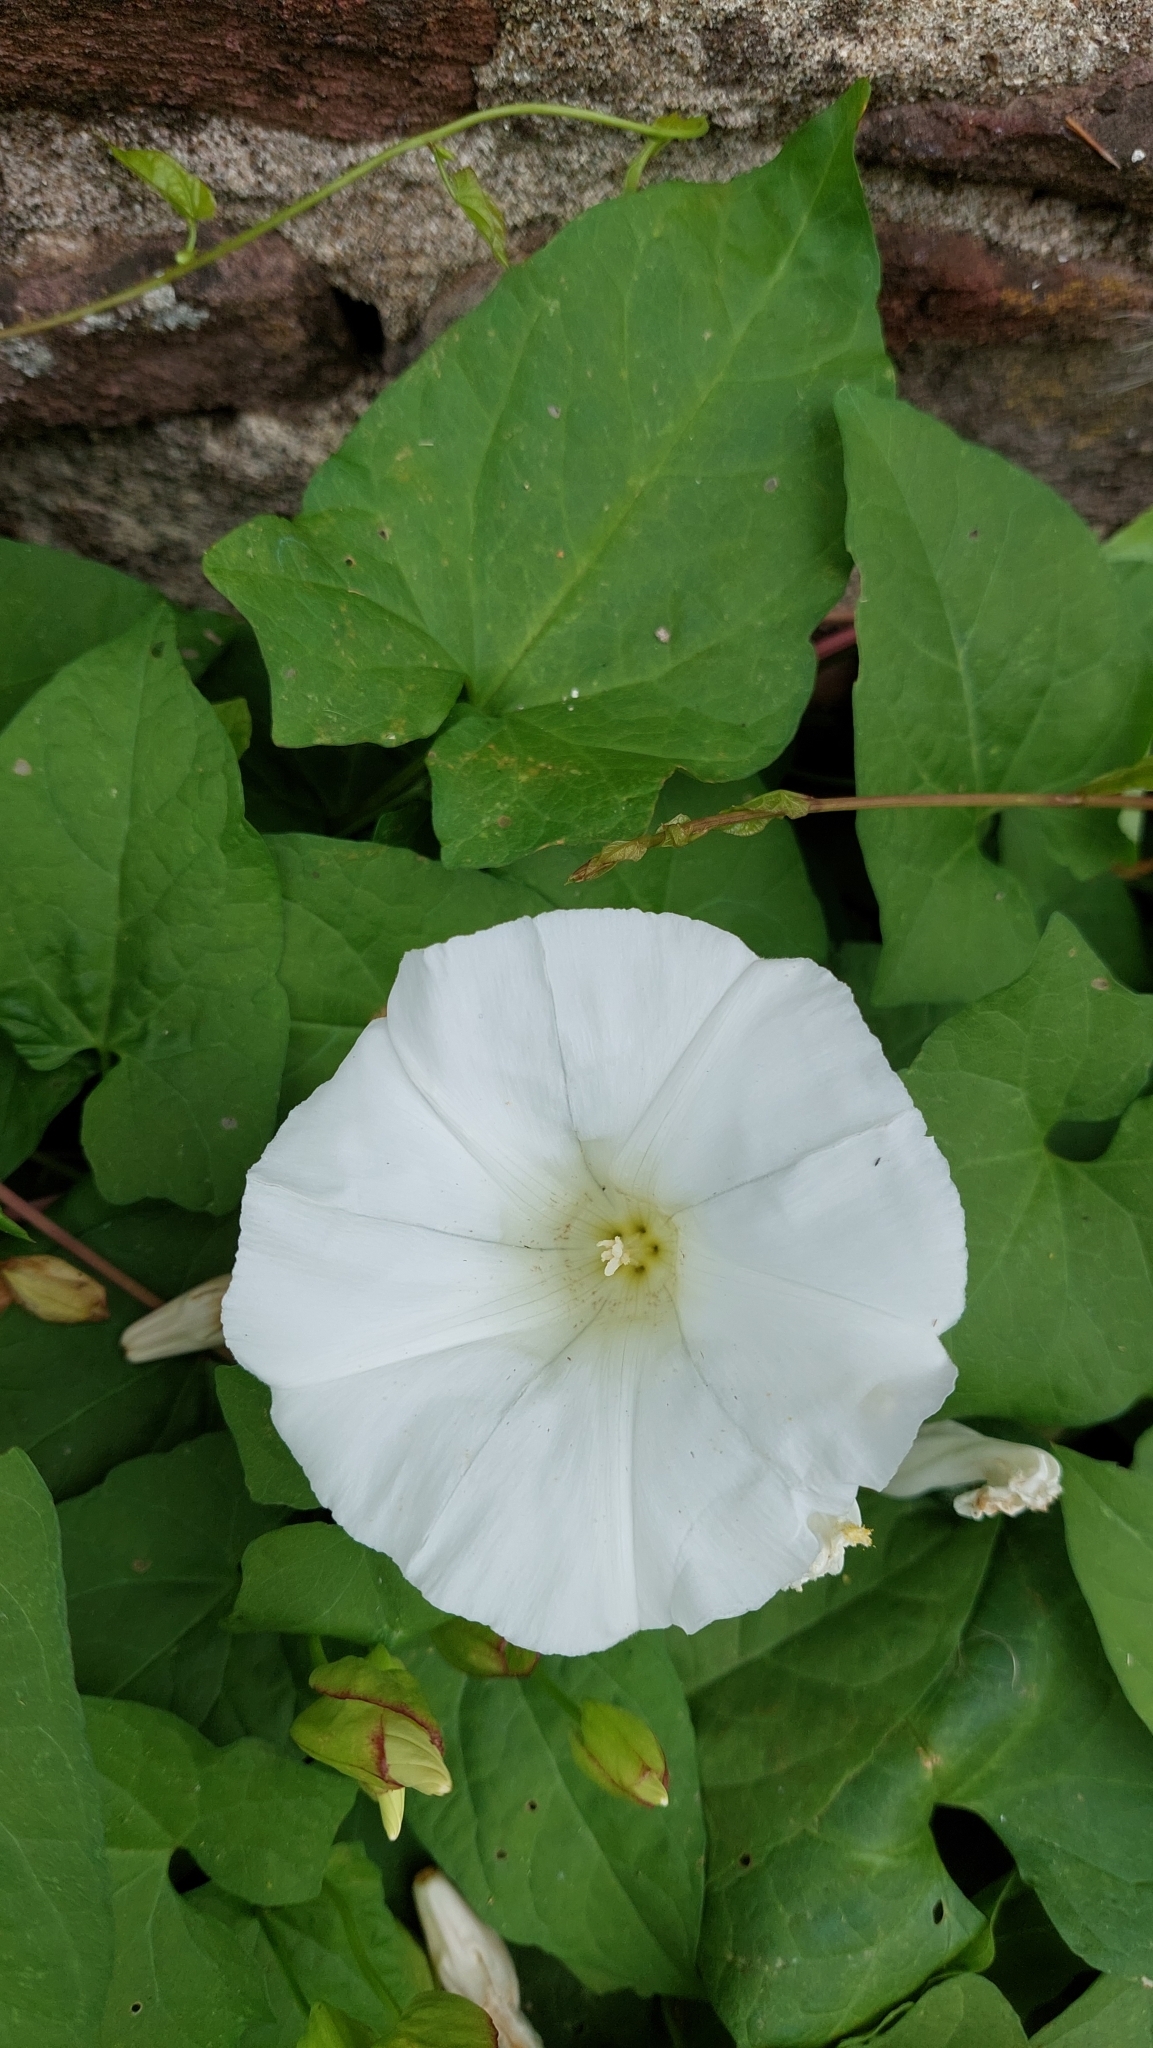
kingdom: Plantae
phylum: Tracheophyta
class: Magnoliopsida
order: Solanales
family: Convolvulaceae
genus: Calystegia
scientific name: Calystegia silvatica
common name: Large bindweed
